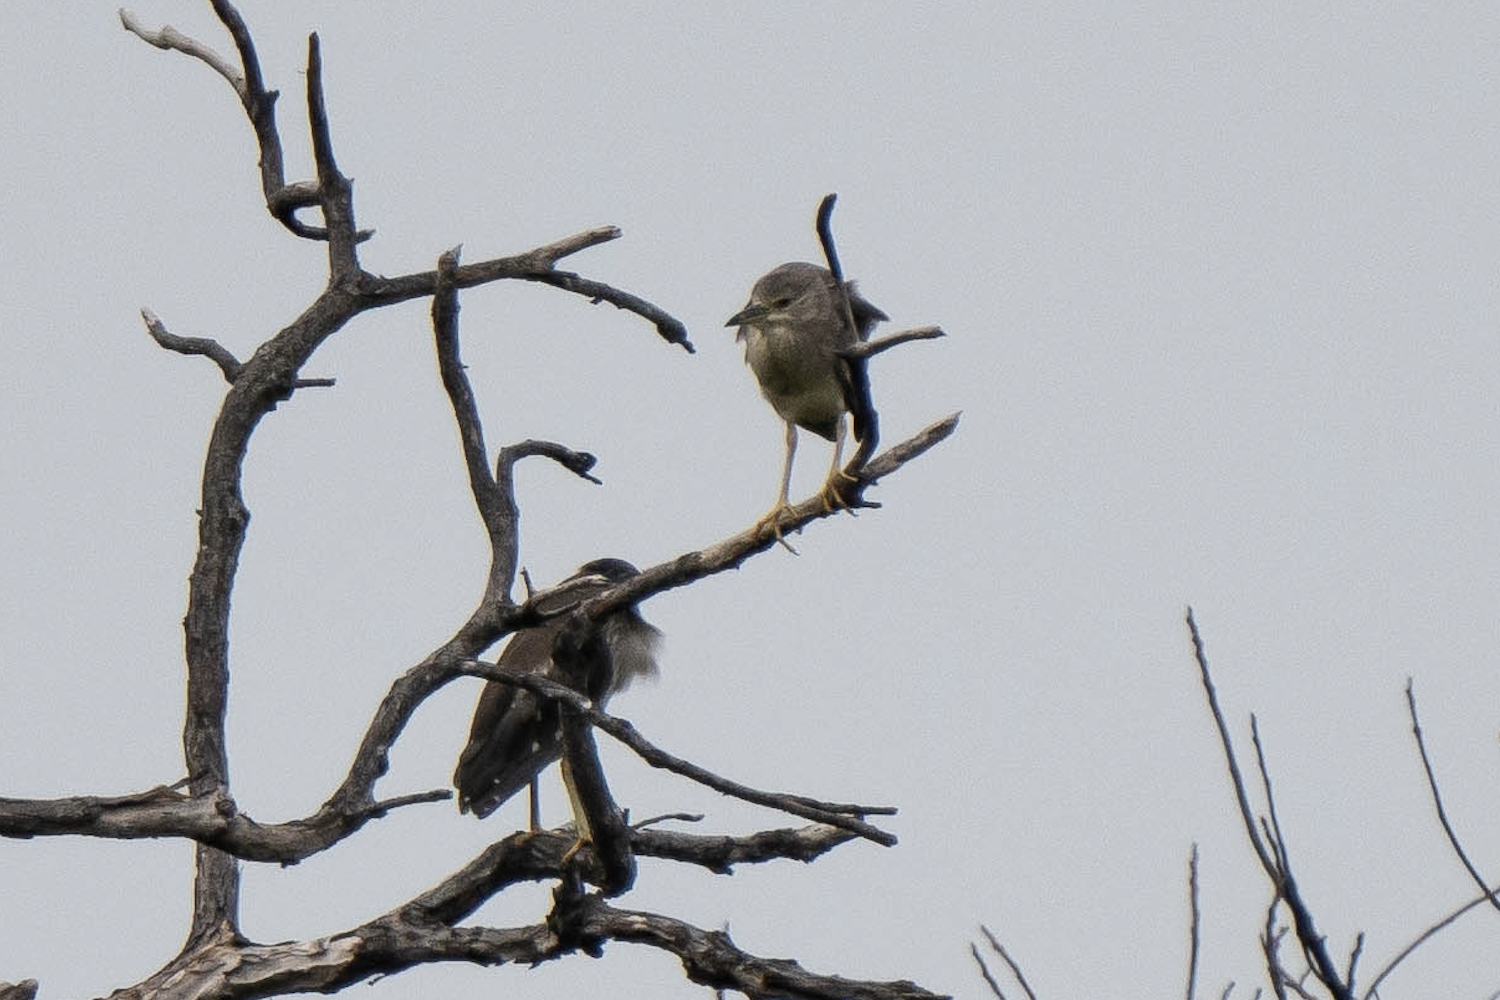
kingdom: Animalia
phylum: Chordata
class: Aves
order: Pelecaniformes
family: Ardeidae
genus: Nycticorax
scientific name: Nycticorax nycticorax
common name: Black-crowned night heron
